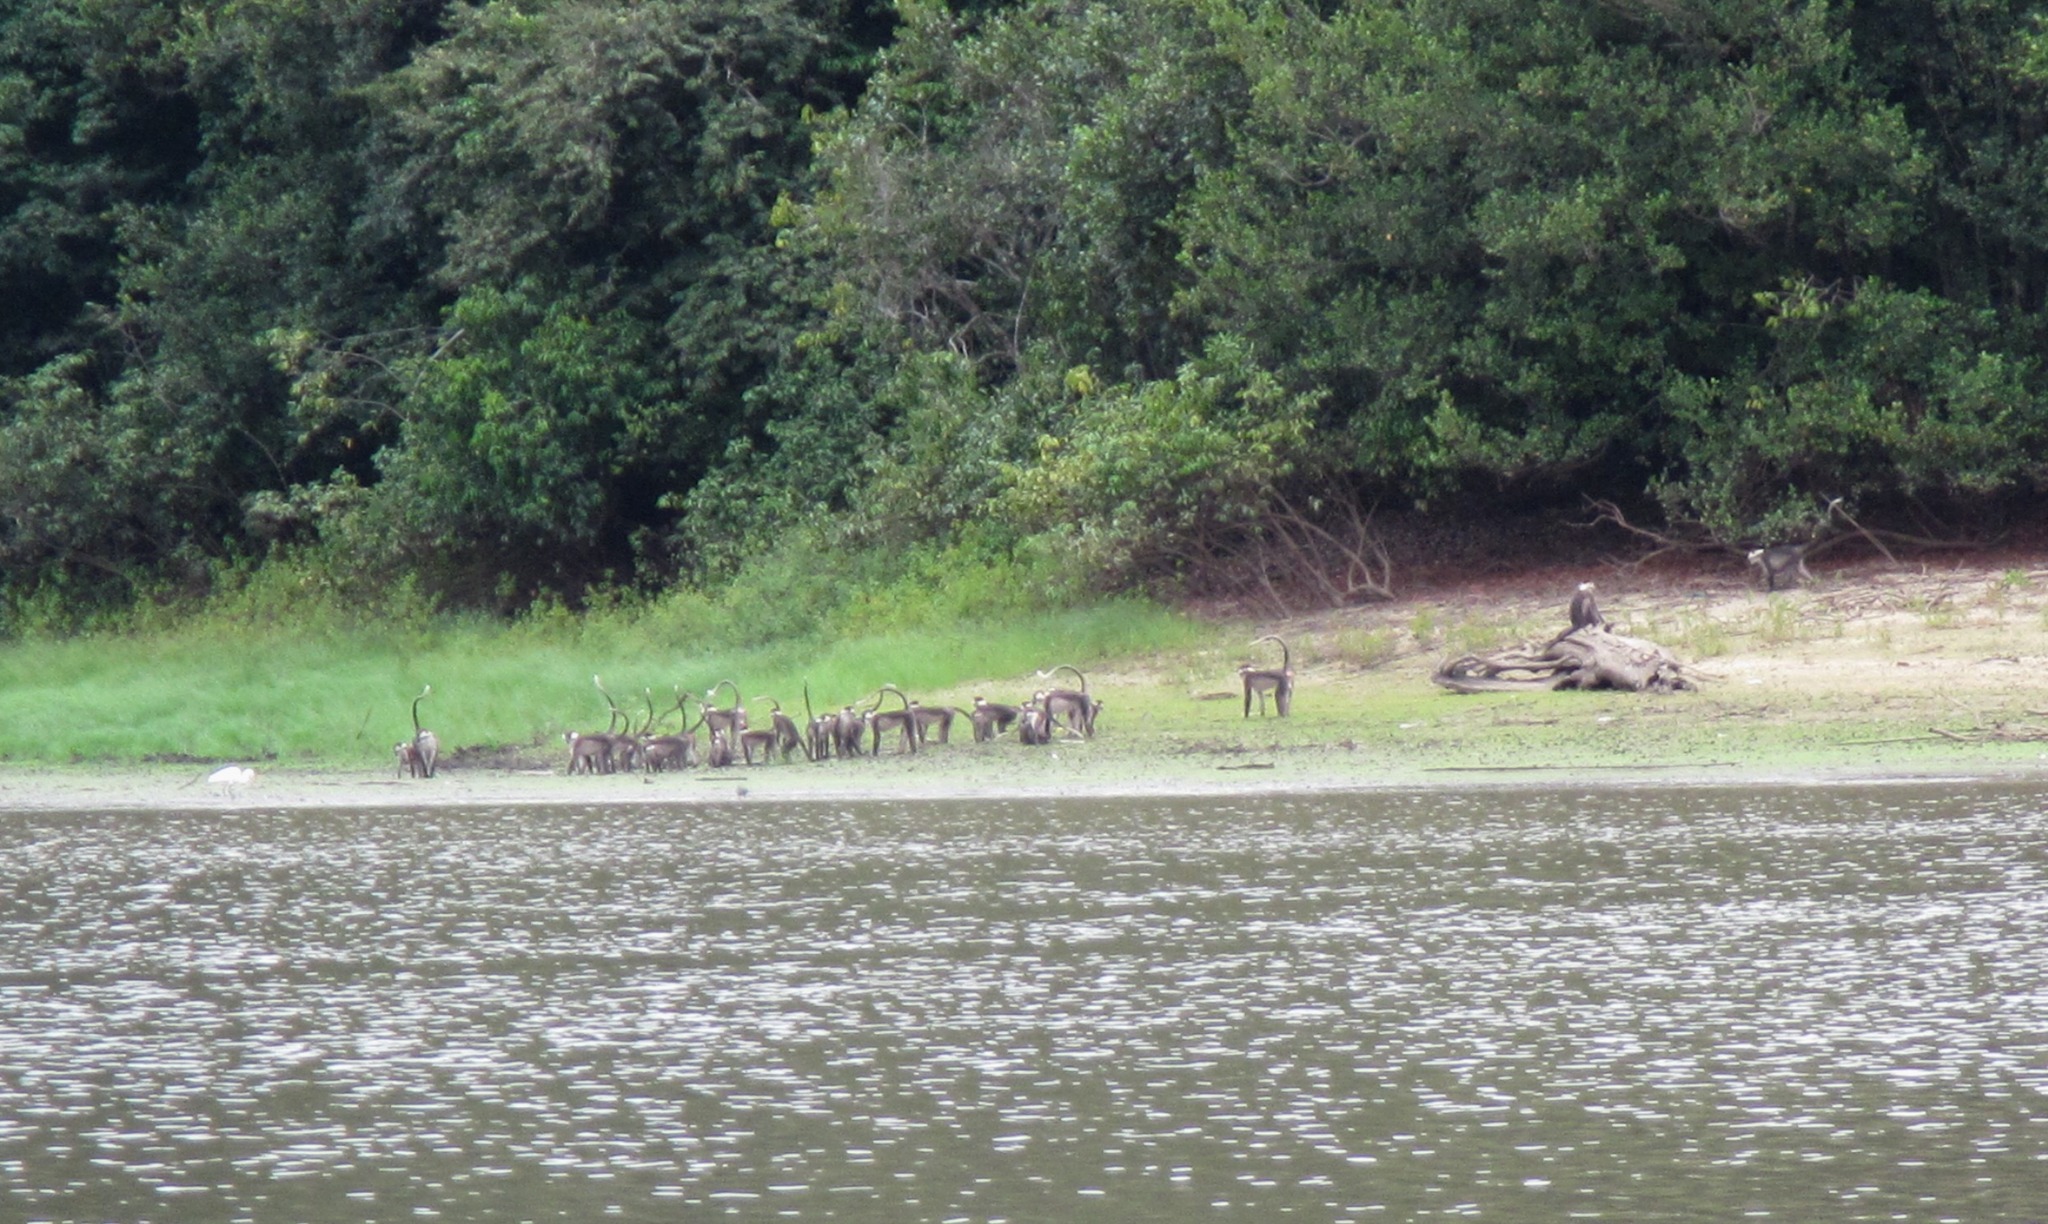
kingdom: Animalia
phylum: Chordata
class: Mammalia
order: Primates
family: Cercopithecidae
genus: Cercocebus
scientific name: Cercocebus torquatus
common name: Collared mangabey
